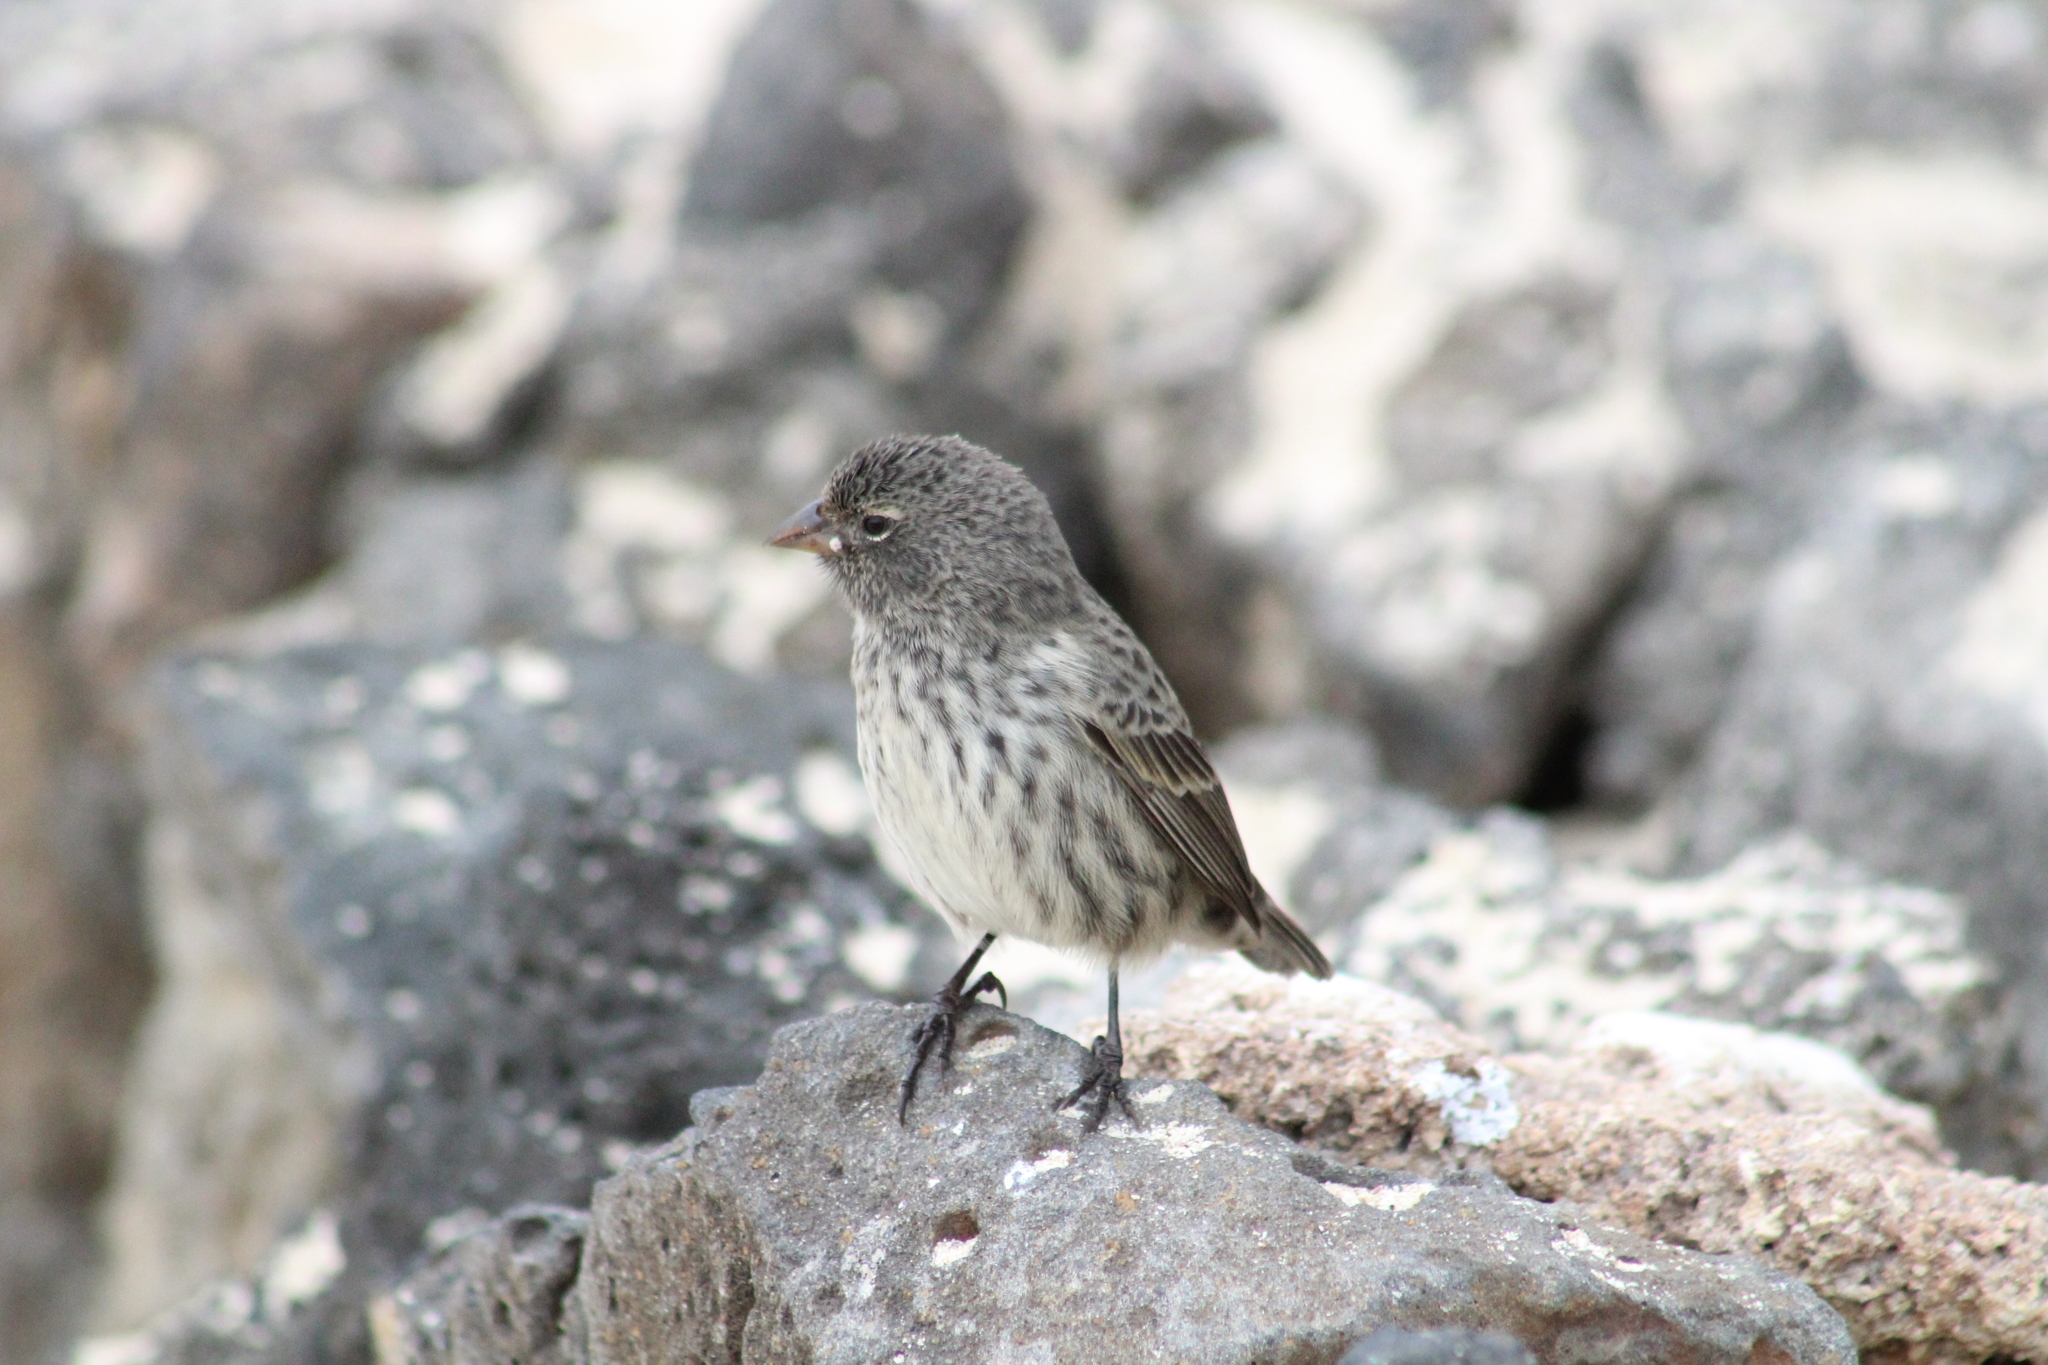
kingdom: Animalia
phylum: Chordata
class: Aves
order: Passeriformes
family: Thraupidae
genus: Geospiza
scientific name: Geospiza fuliginosa
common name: Small ground finch
